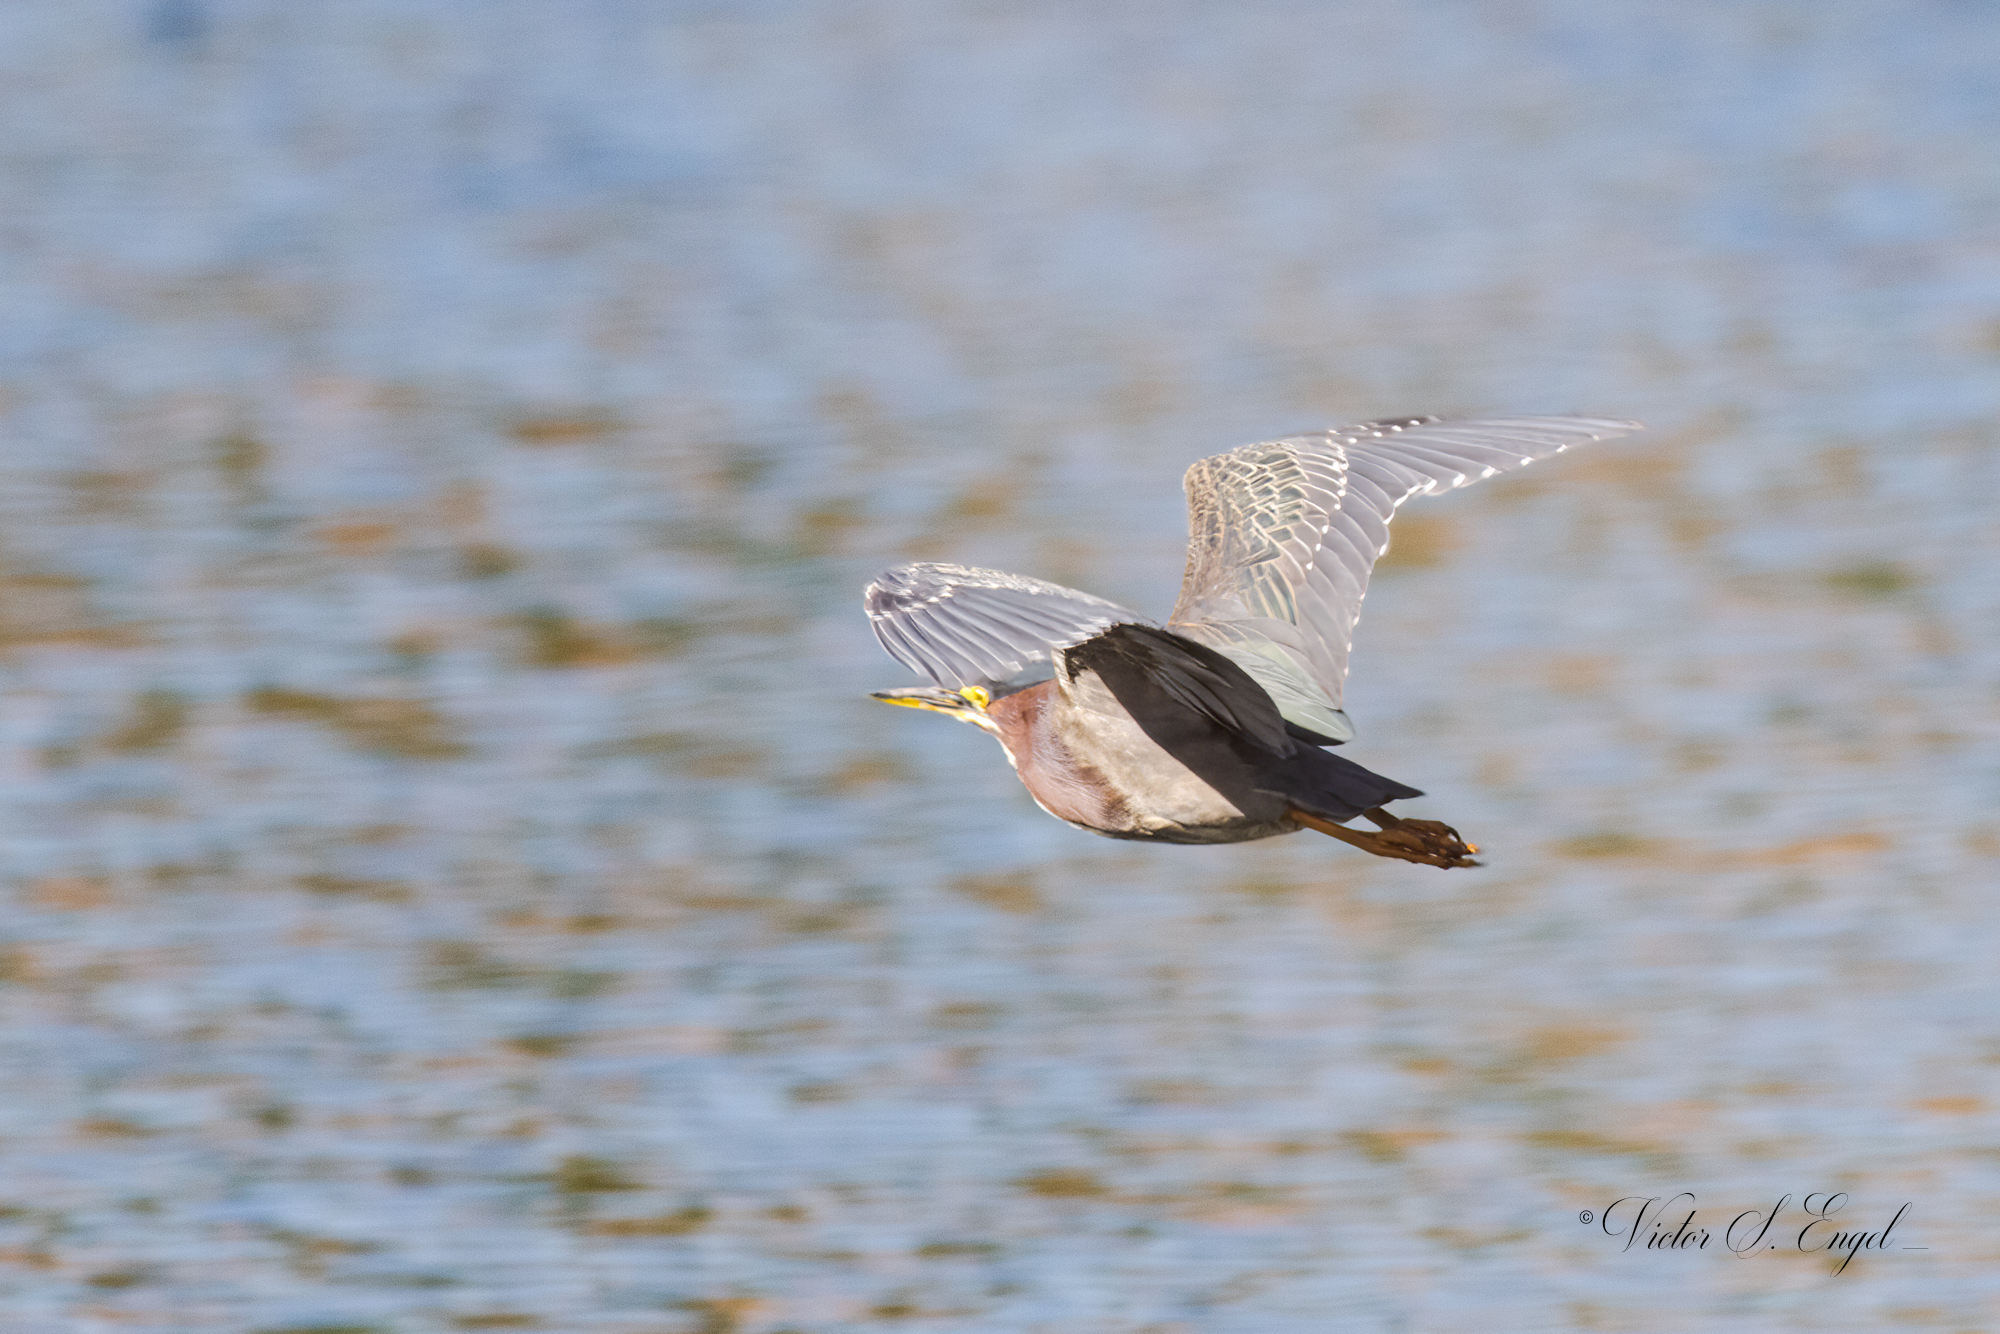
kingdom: Animalia
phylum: Chordata
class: Aves
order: Pelecaniformes
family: Ardeidae
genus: Butorides
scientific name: Butorides virescens
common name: Green heron
